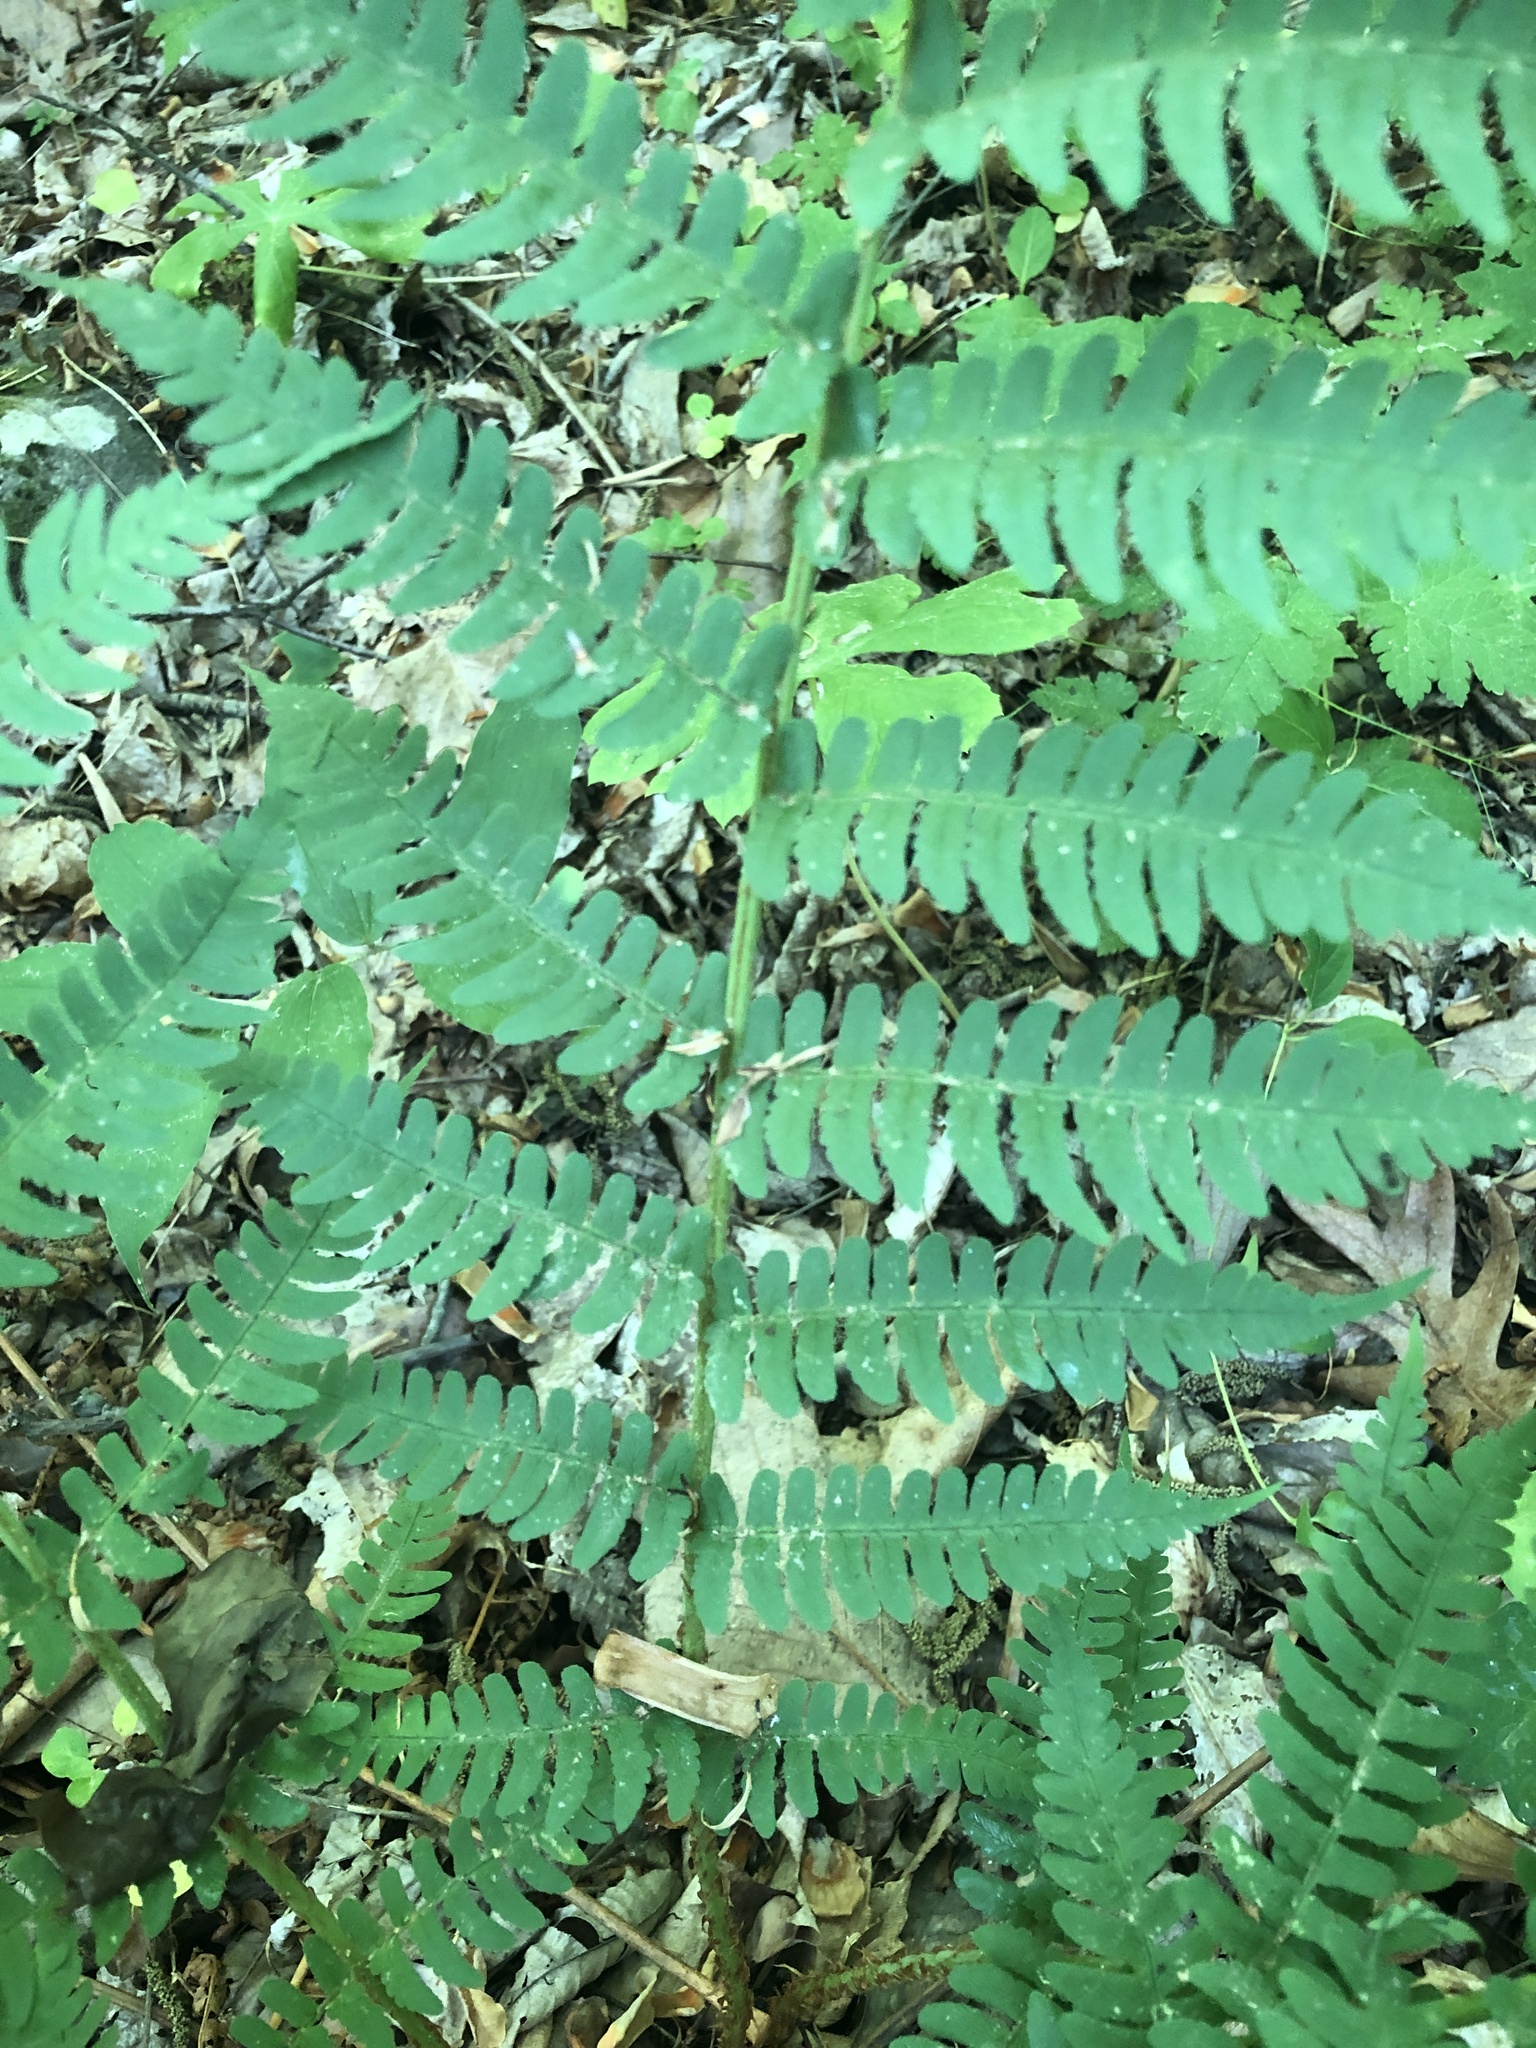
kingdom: Plantae
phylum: Tracheophyta
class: Polypodiopsida
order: Polypodiales
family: Dryopteridaceae
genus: Dryopteris
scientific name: Dryopteris marginalis
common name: Marginal wood fern
